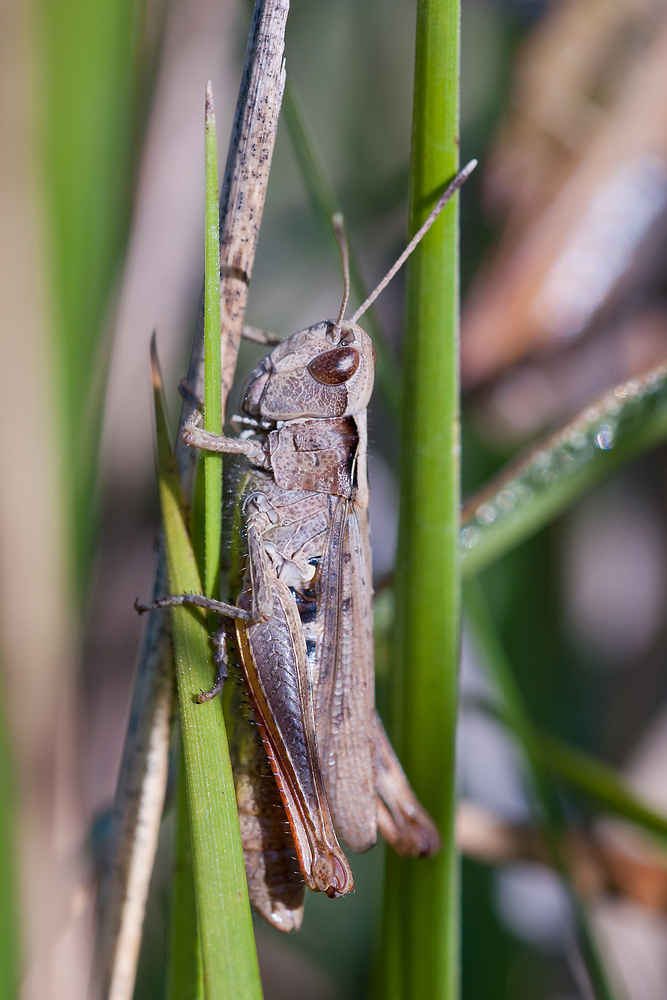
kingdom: Animalia
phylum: Arthropoda
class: Insecta
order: Orthoptera
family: Acrididae
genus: Gomphocerippus
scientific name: Gomphocerippus rufus
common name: Rufous grasshopper
